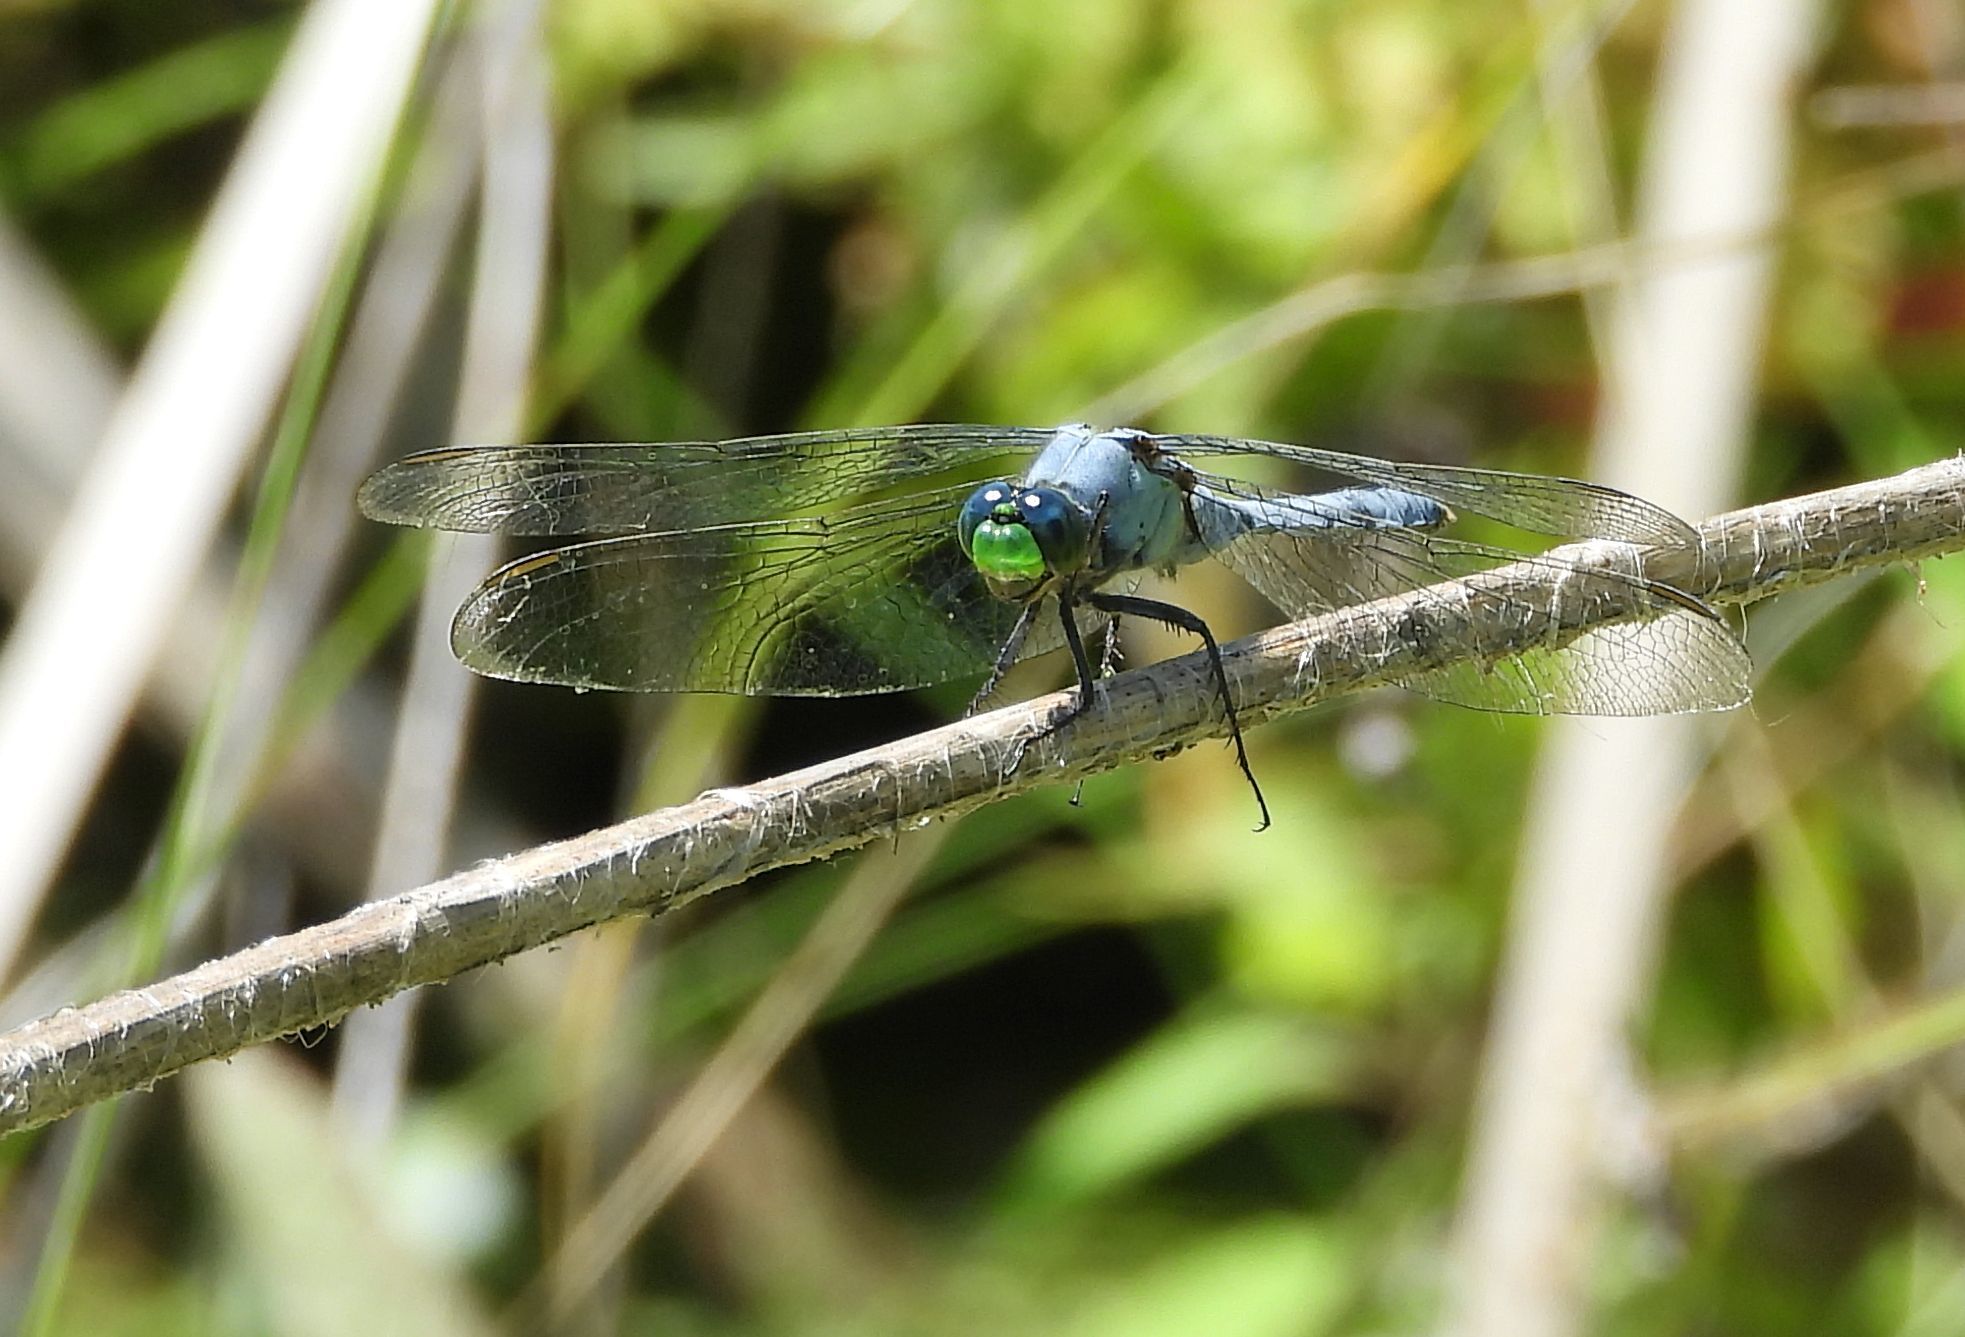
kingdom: Animalia
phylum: Arthropoda
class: Insecta
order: Odonata
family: Libellulidae
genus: Erythemis
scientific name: Erythemis simplicicollis
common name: Eastern pondhawk
